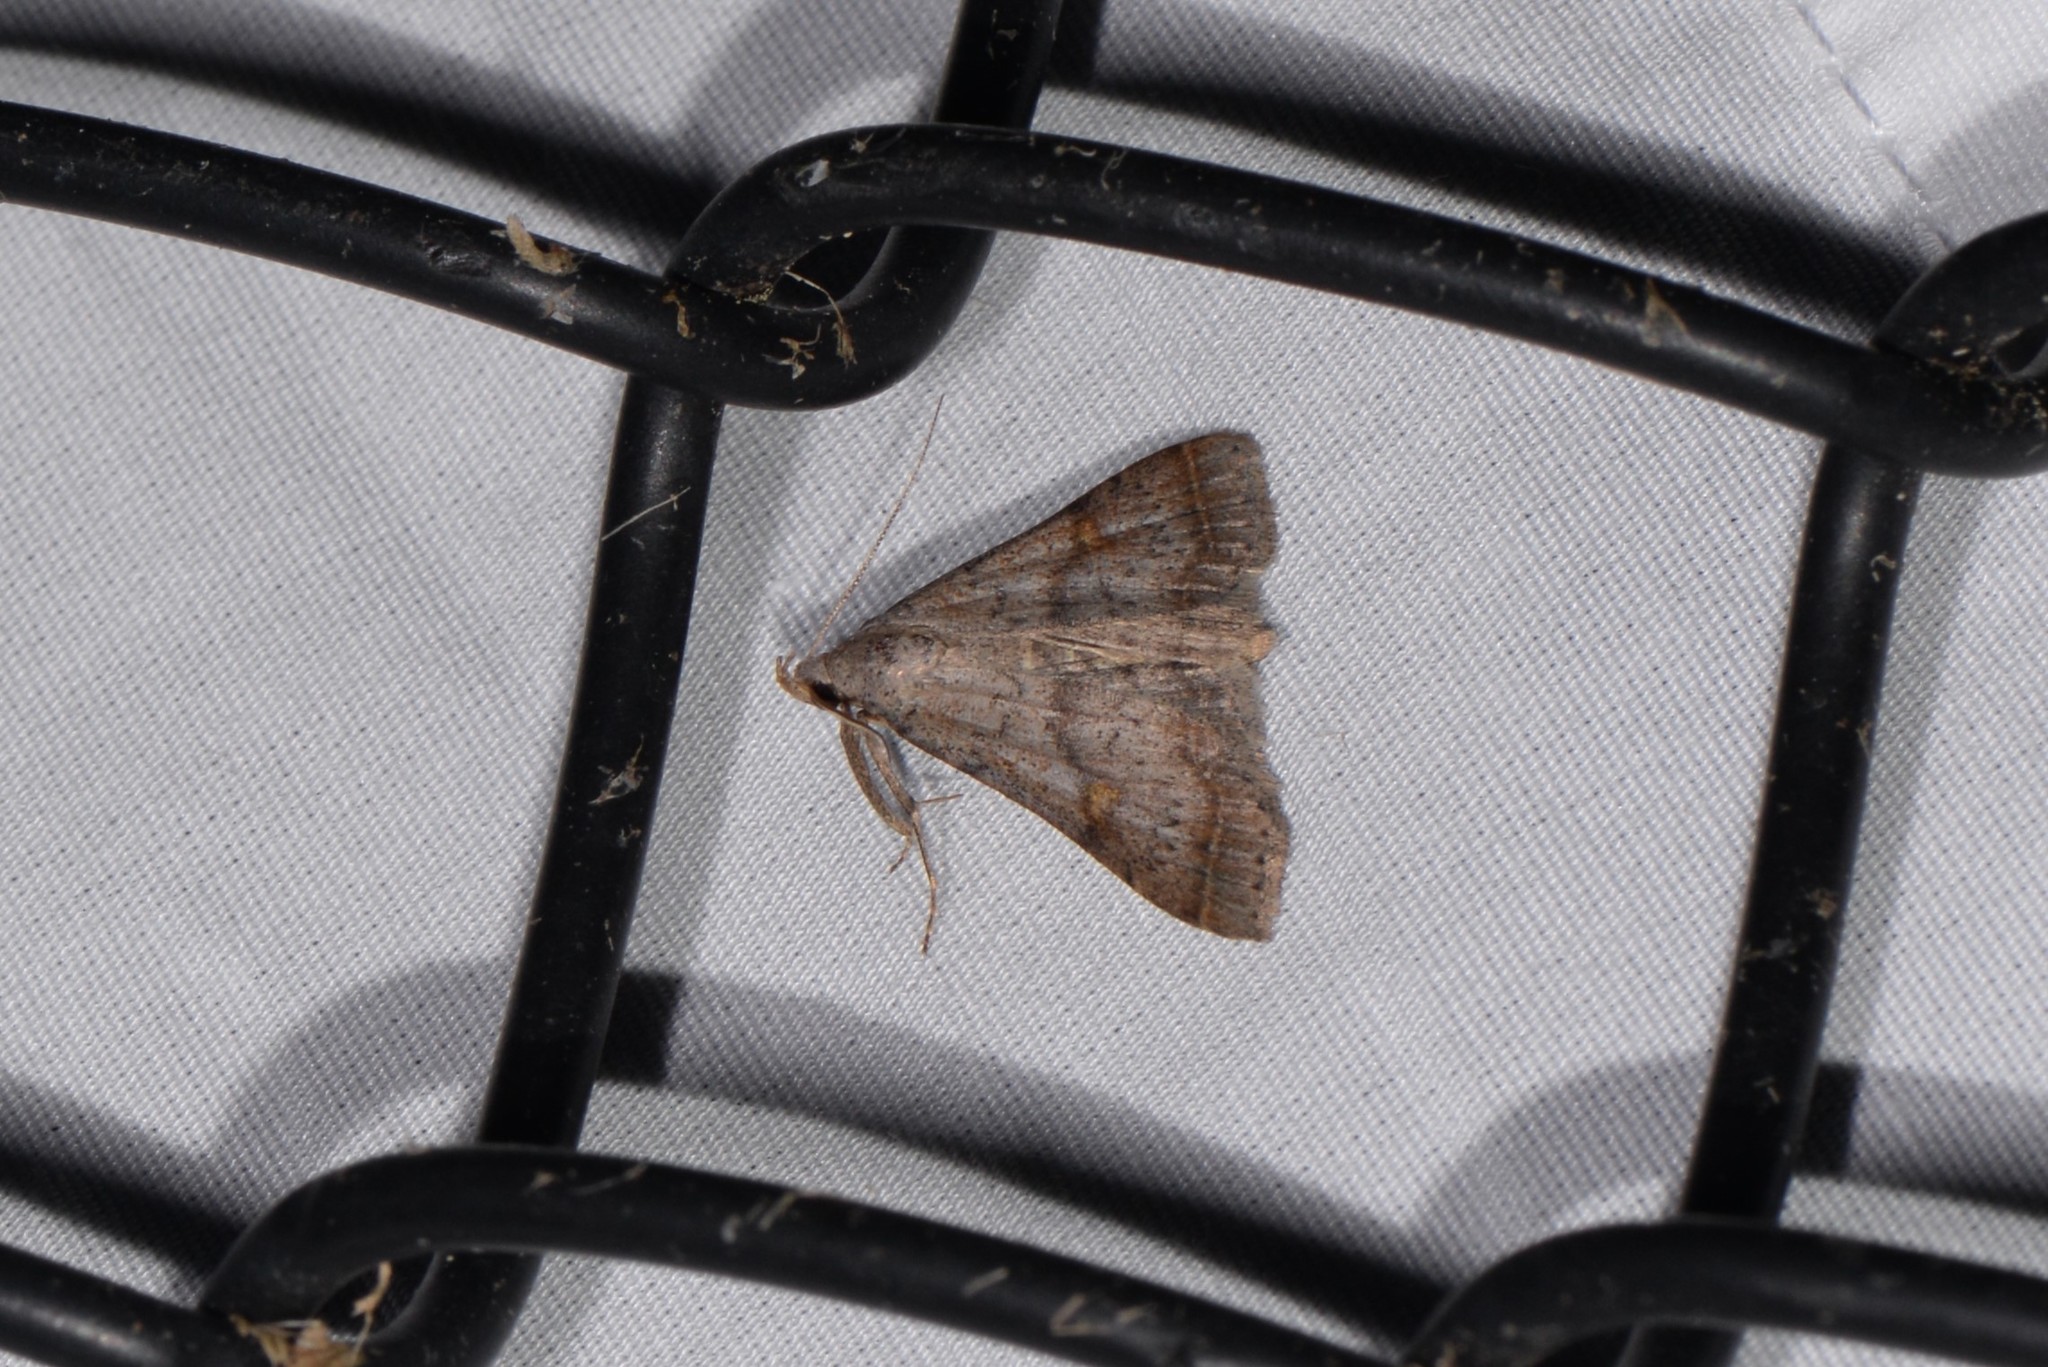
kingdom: Animalia
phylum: Arthropoda
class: Insecta
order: Lepidoptera
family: Erebidae
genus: Bleptina
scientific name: Bleptina caradrinalis
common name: Bent-winged owlet
